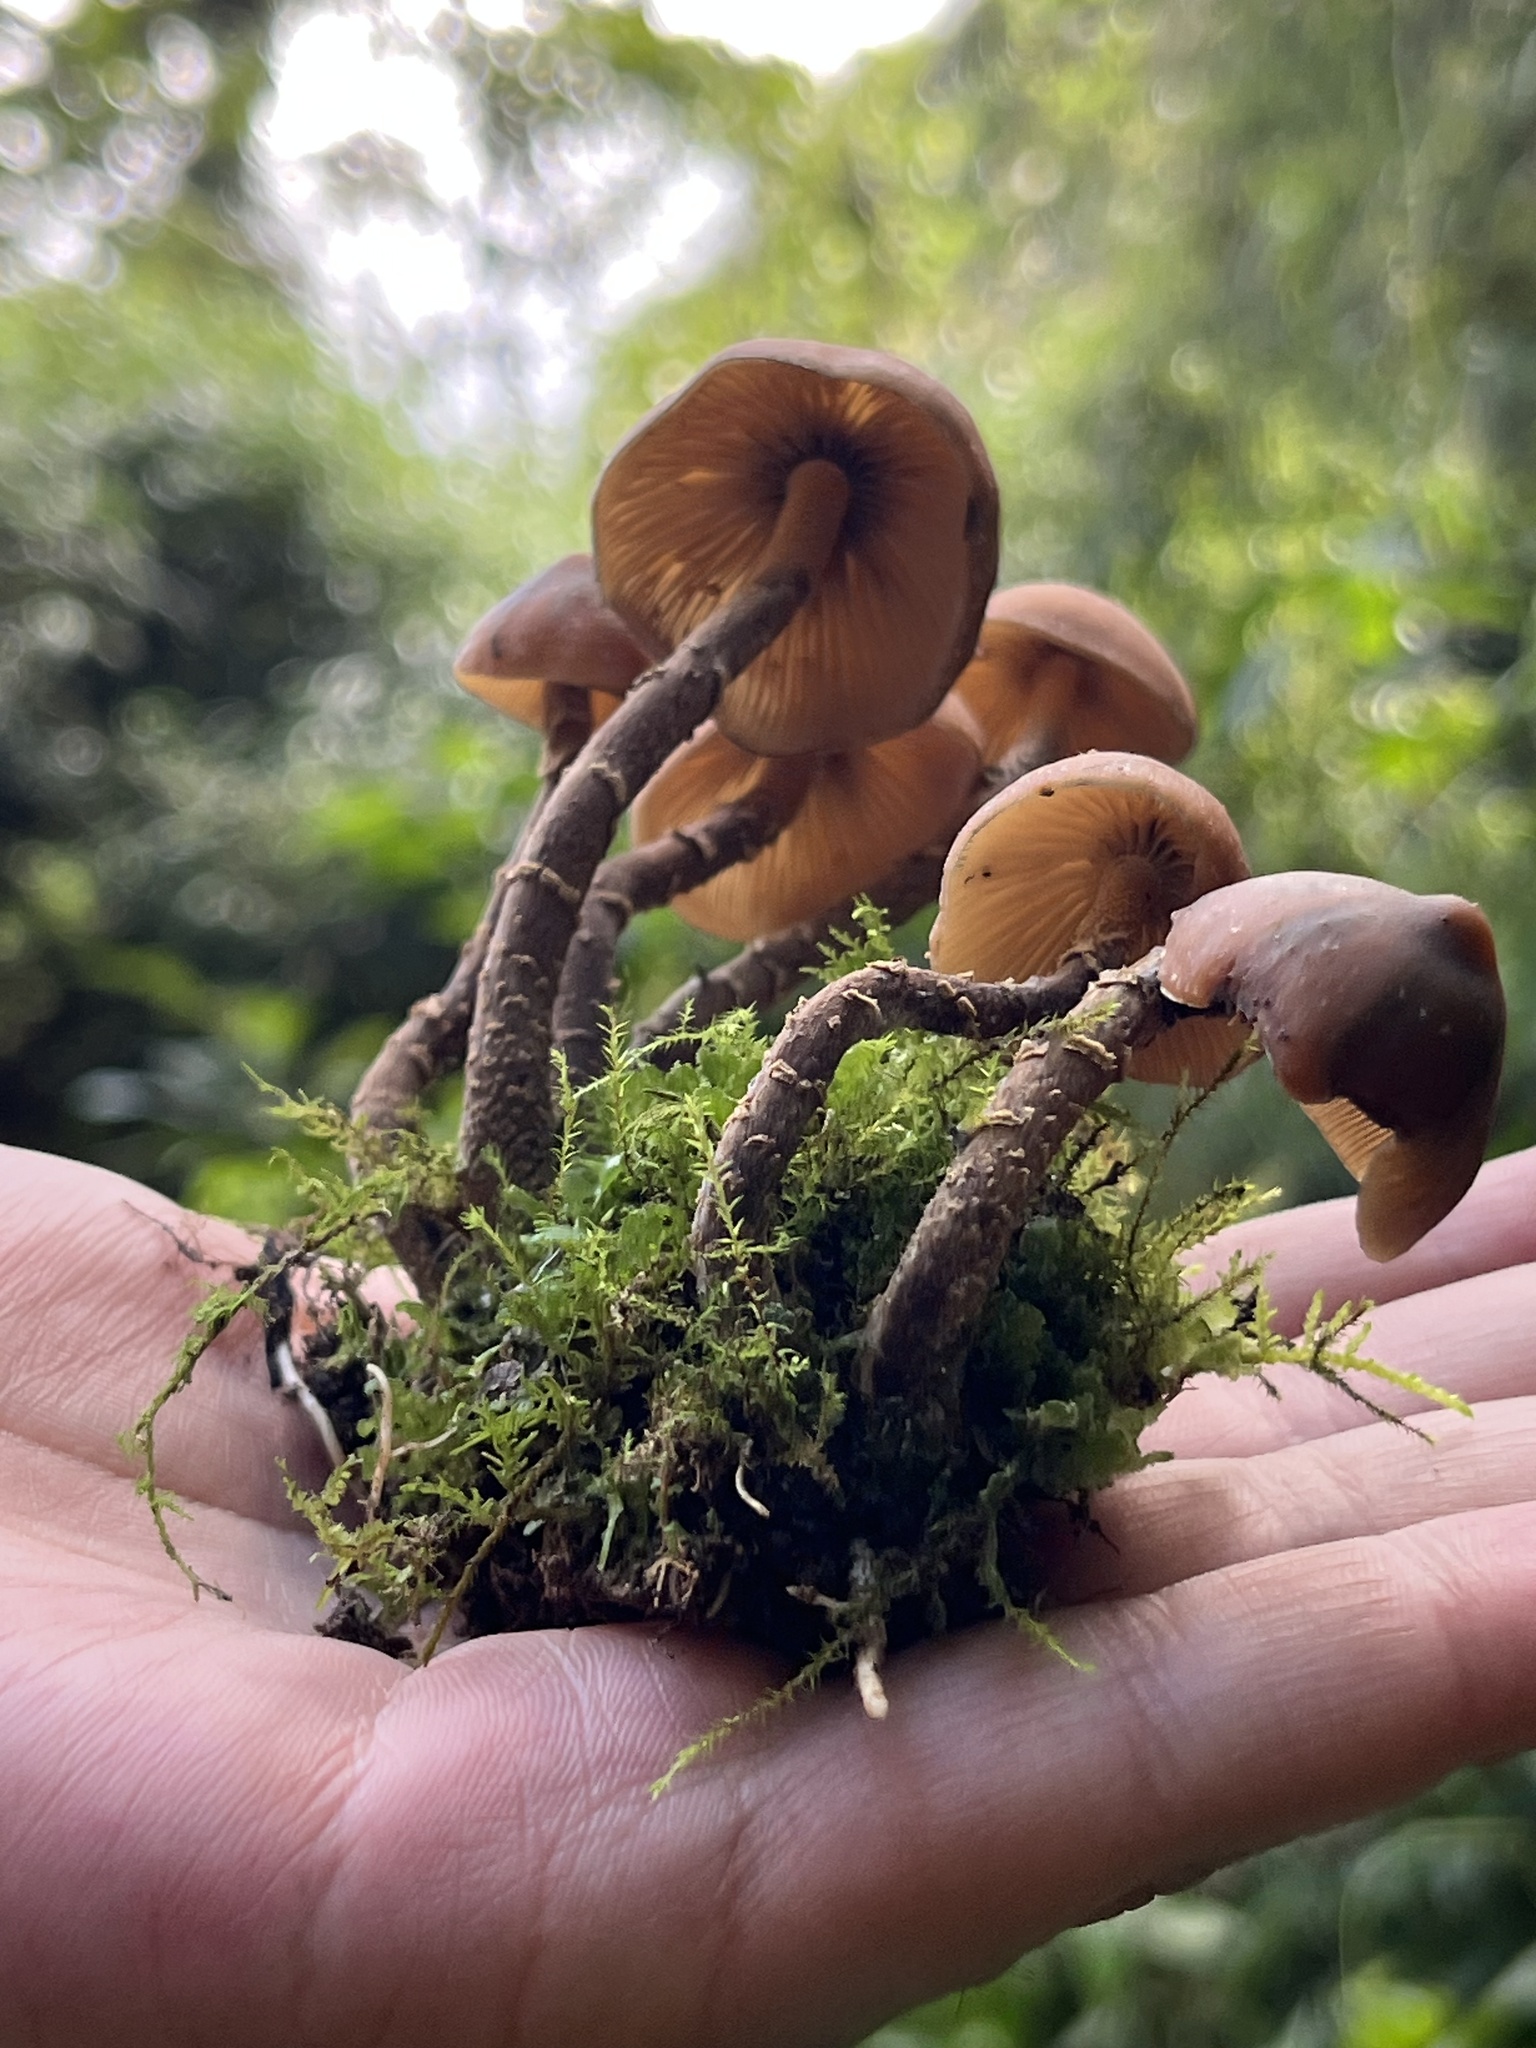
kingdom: Fungi
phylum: Basidiomycota
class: Agaricomycetes
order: Agaricales
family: Hymenogastraceae
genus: Psilocybe
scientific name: Psilocybe zapotecorum
